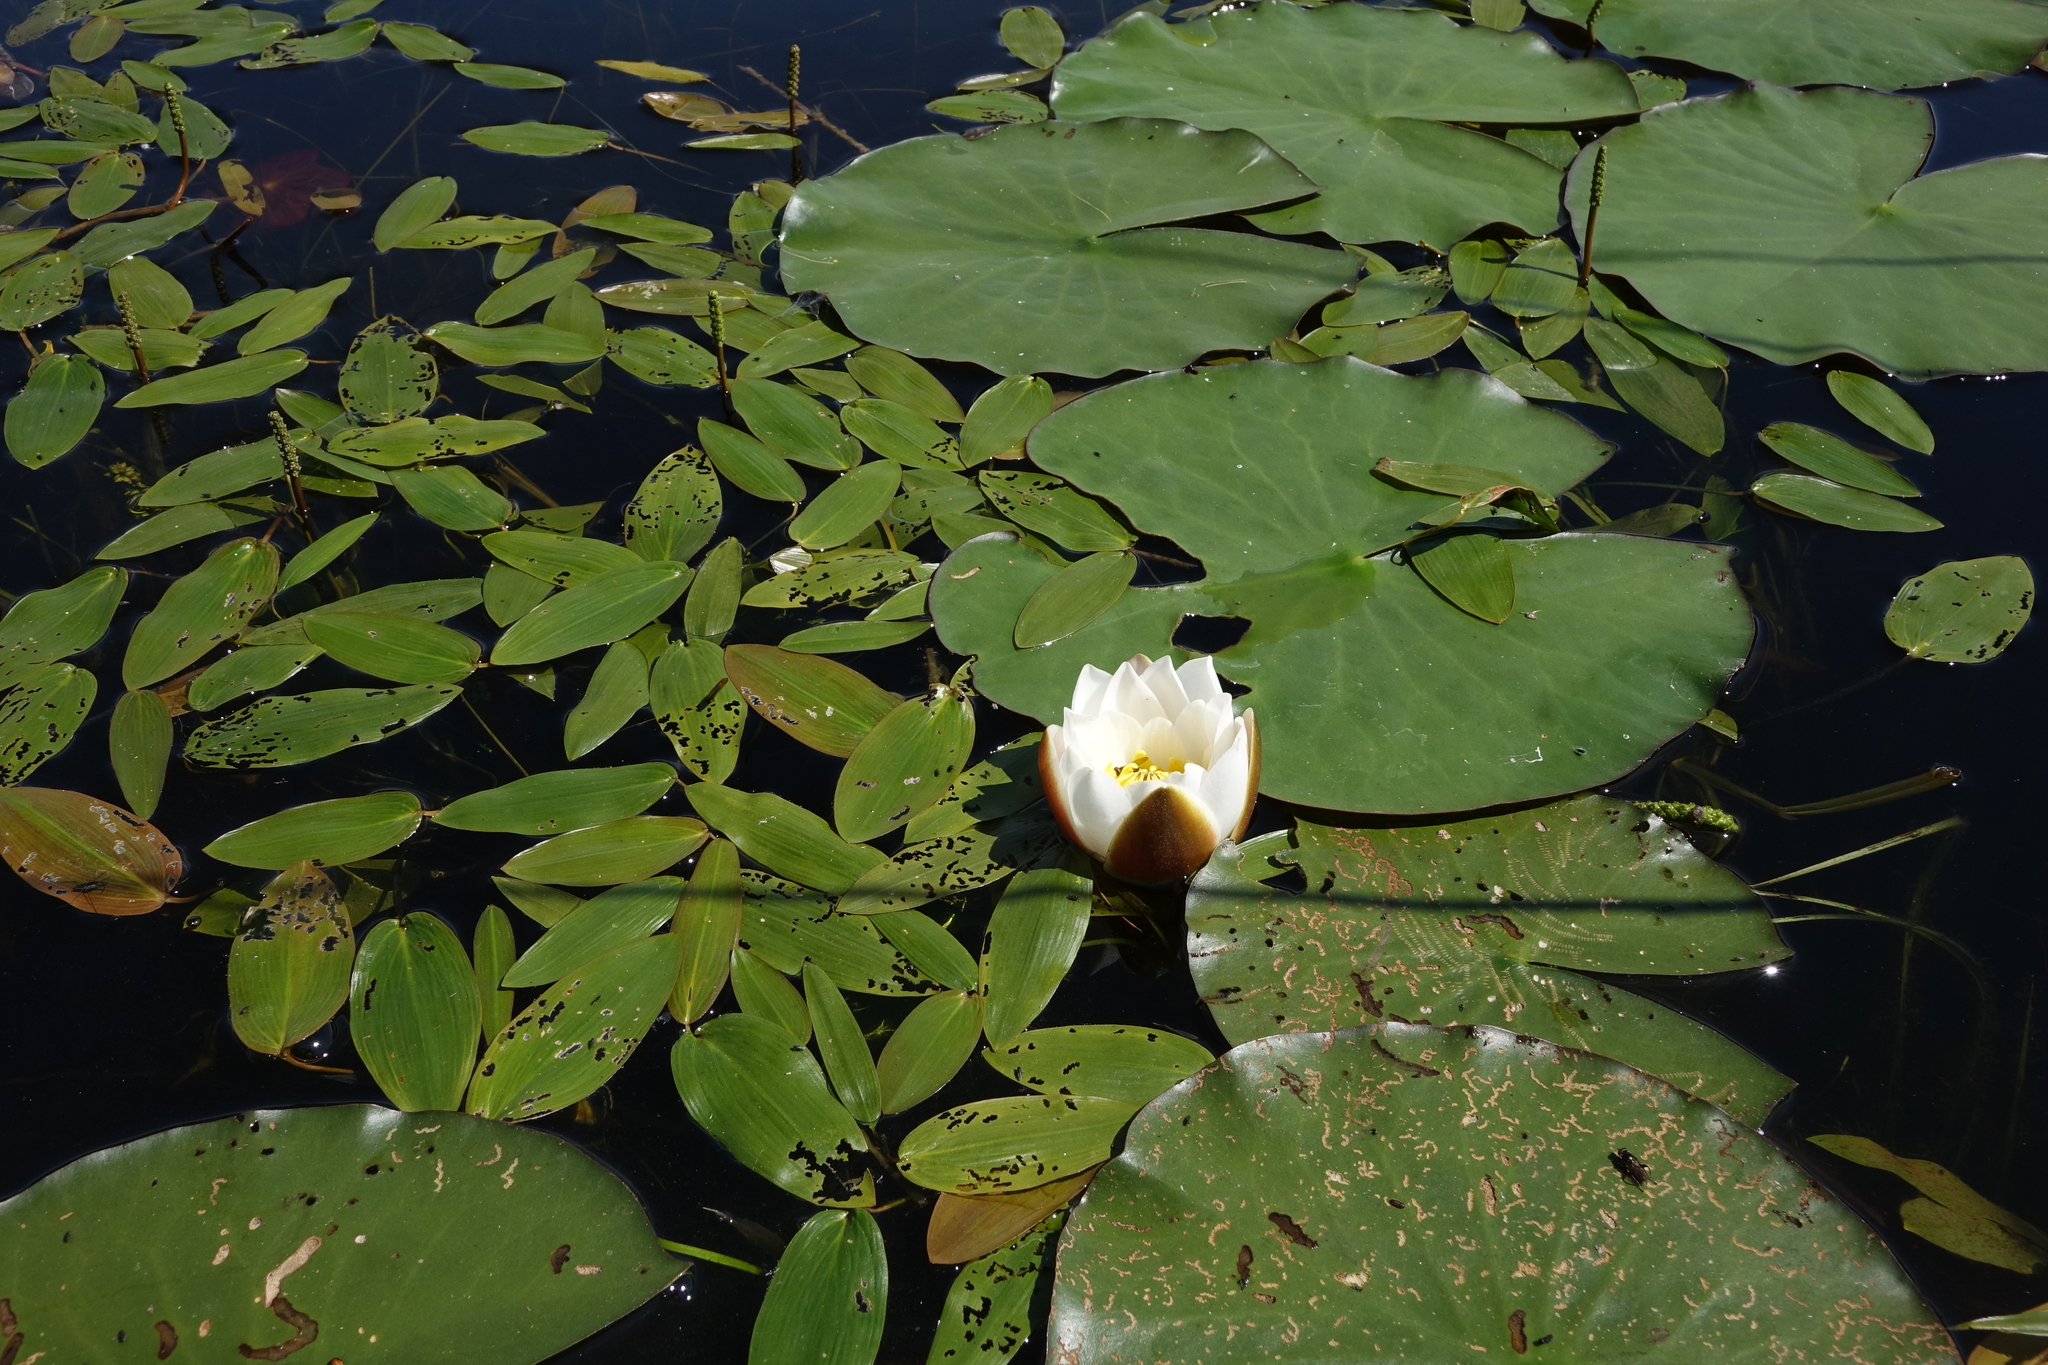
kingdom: Plantae
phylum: Tracheophyta
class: Magnoliopsida
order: Nymphaeales
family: Nymphaeaceae
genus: Nymphaea
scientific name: Nymphaea candida
